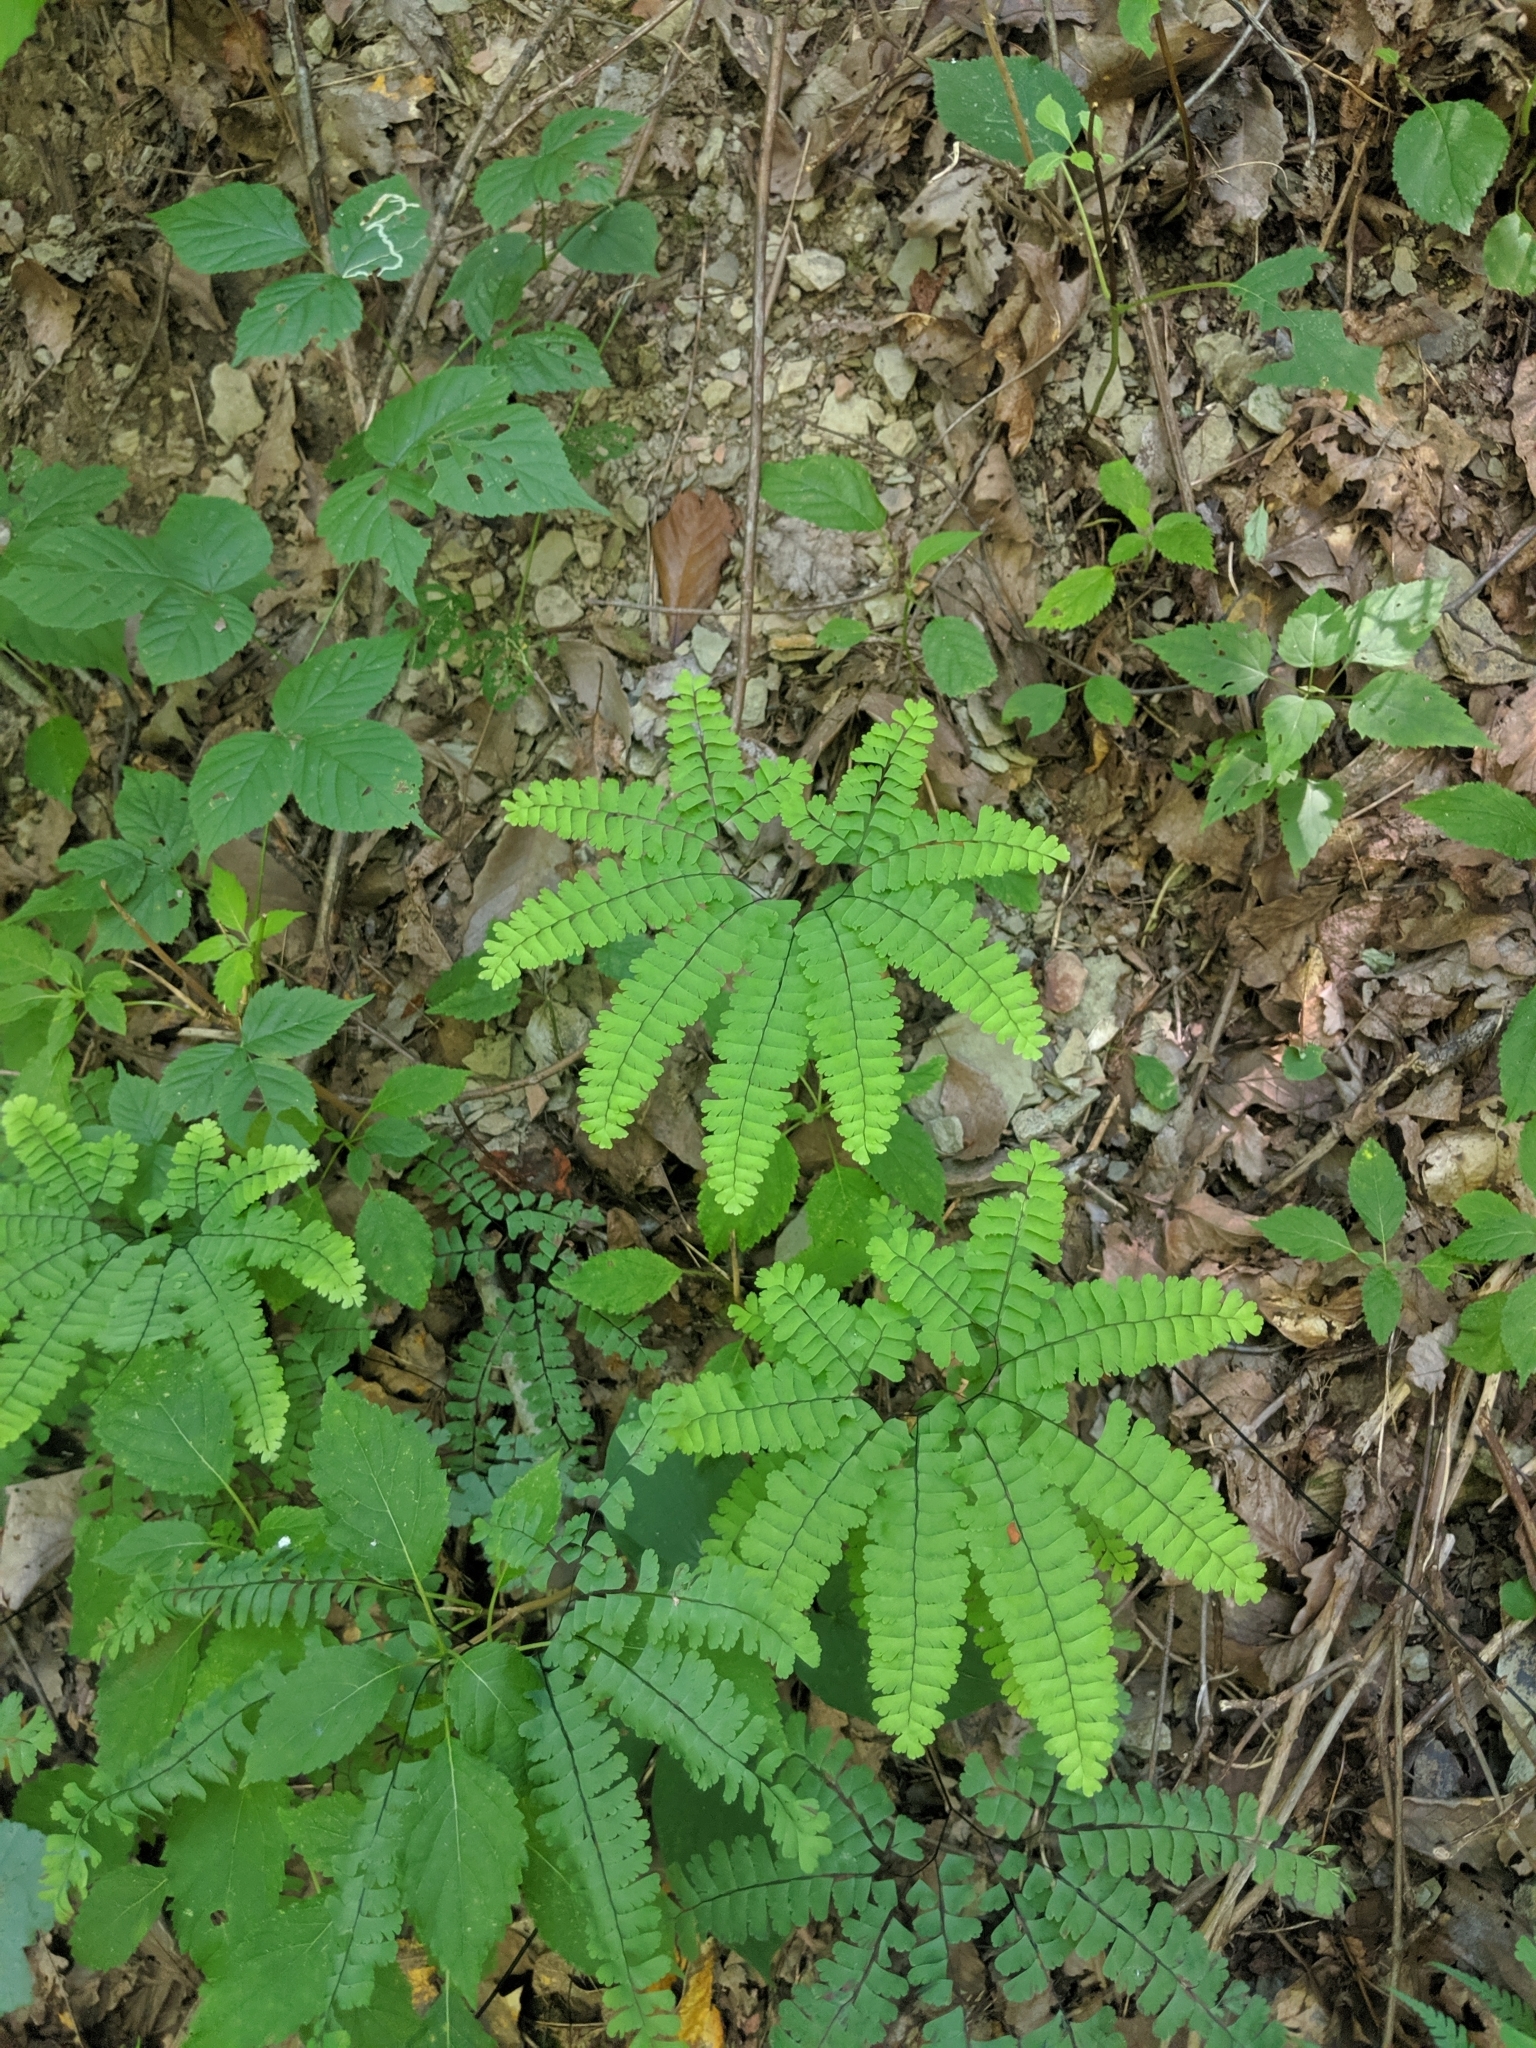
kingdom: Plantae
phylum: Tracheophyta
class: Polypodiopsida
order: Polypodiales
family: Pteridaceae
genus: Adiantum
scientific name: Adiantum pedatum
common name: Five-finger fern
